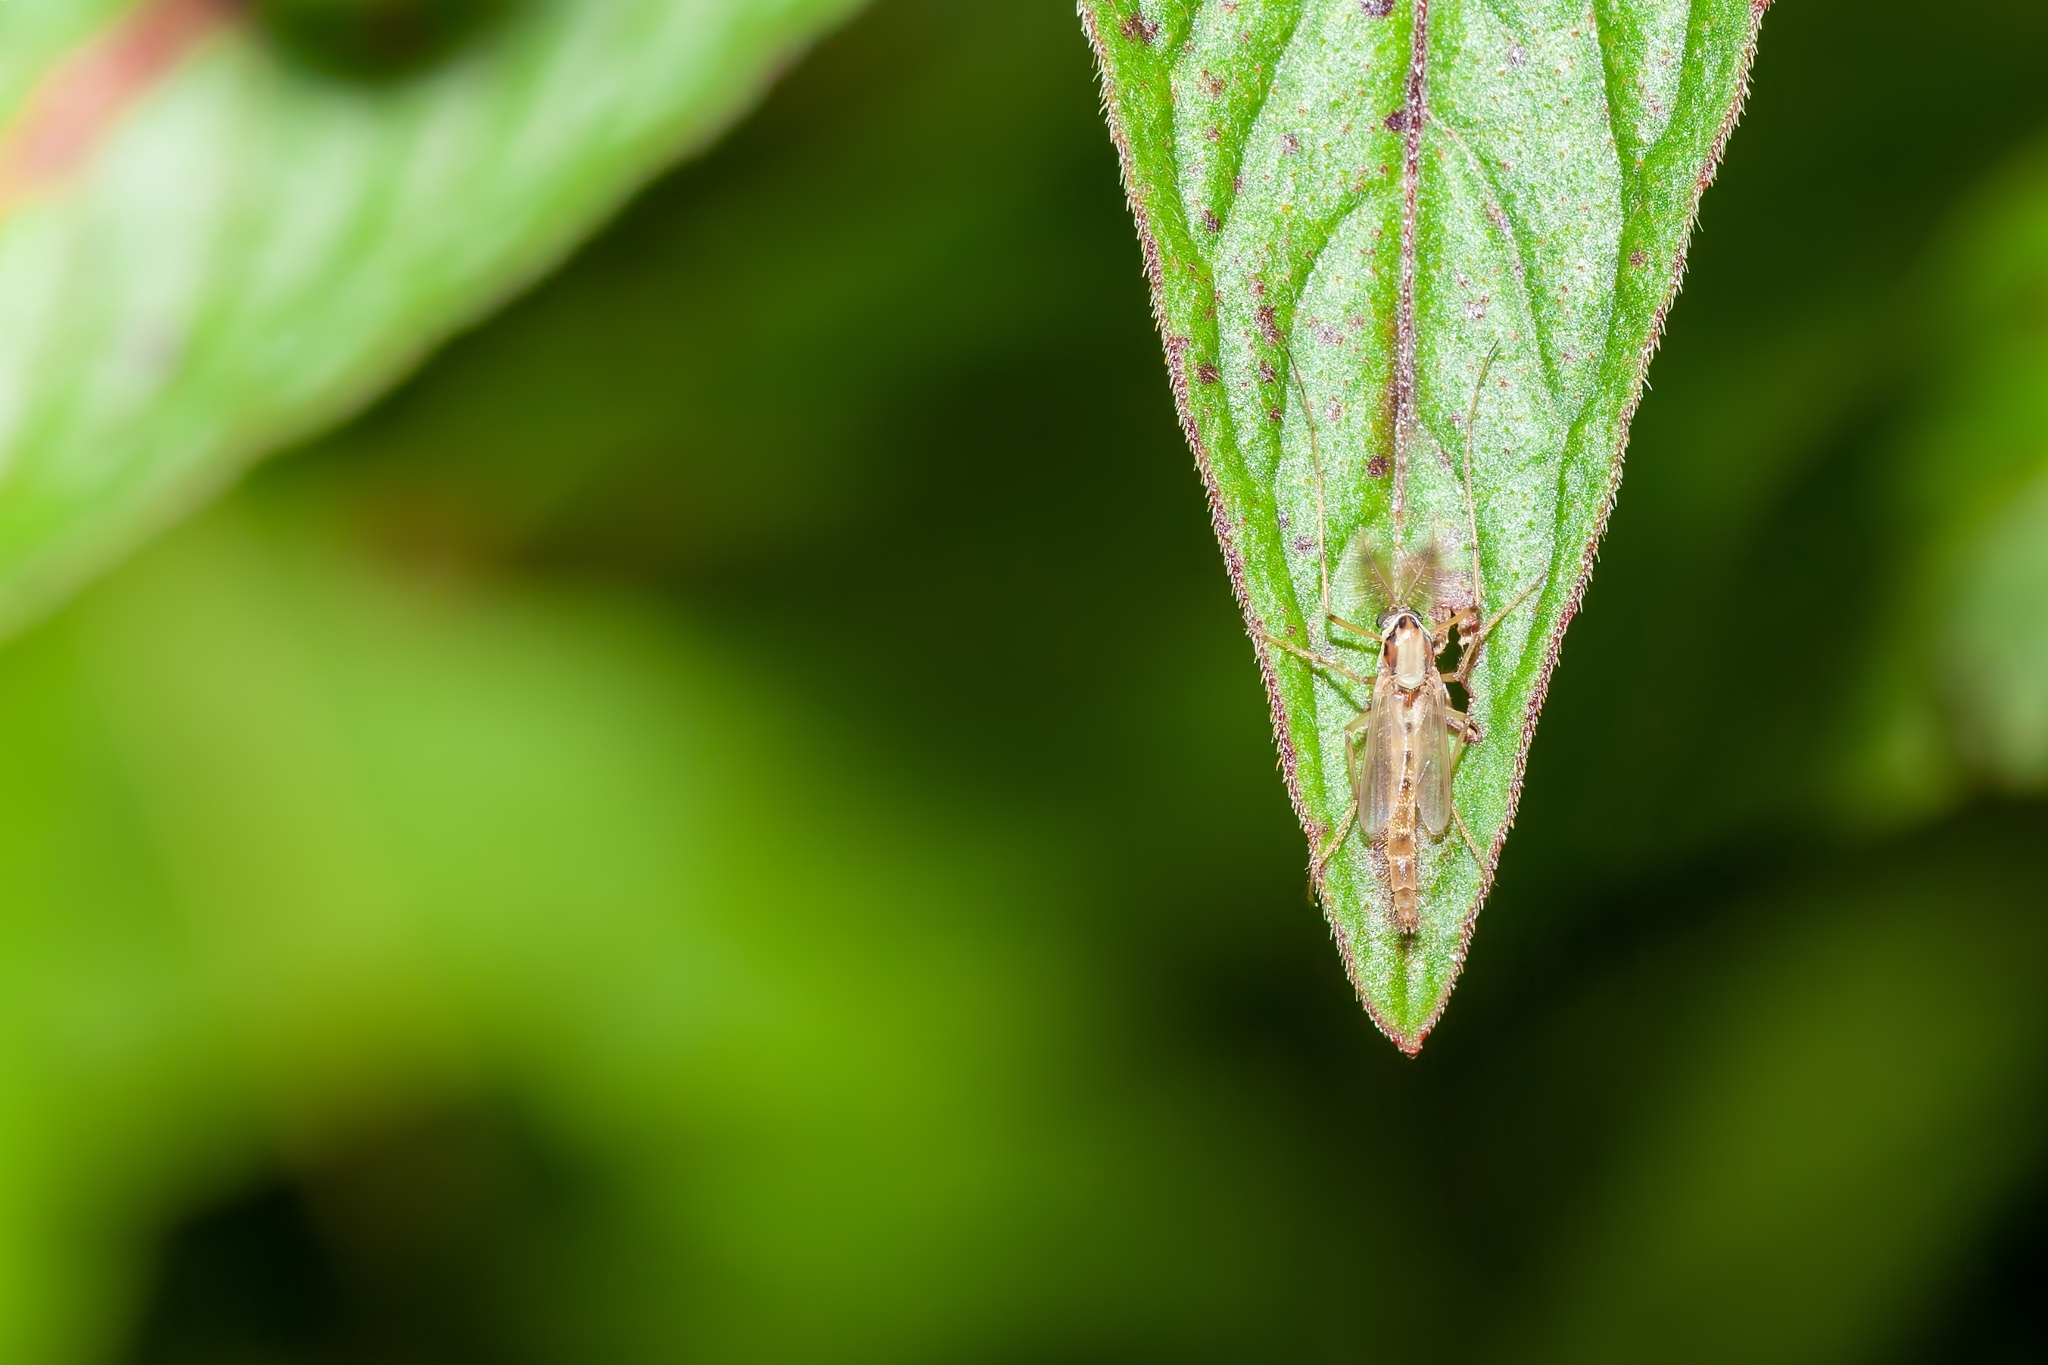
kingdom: Animalia
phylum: Arthropoda
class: Insecta
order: Diptera
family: Chironomidae
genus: Goeldichironomus
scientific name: Goeldichironomus carus
